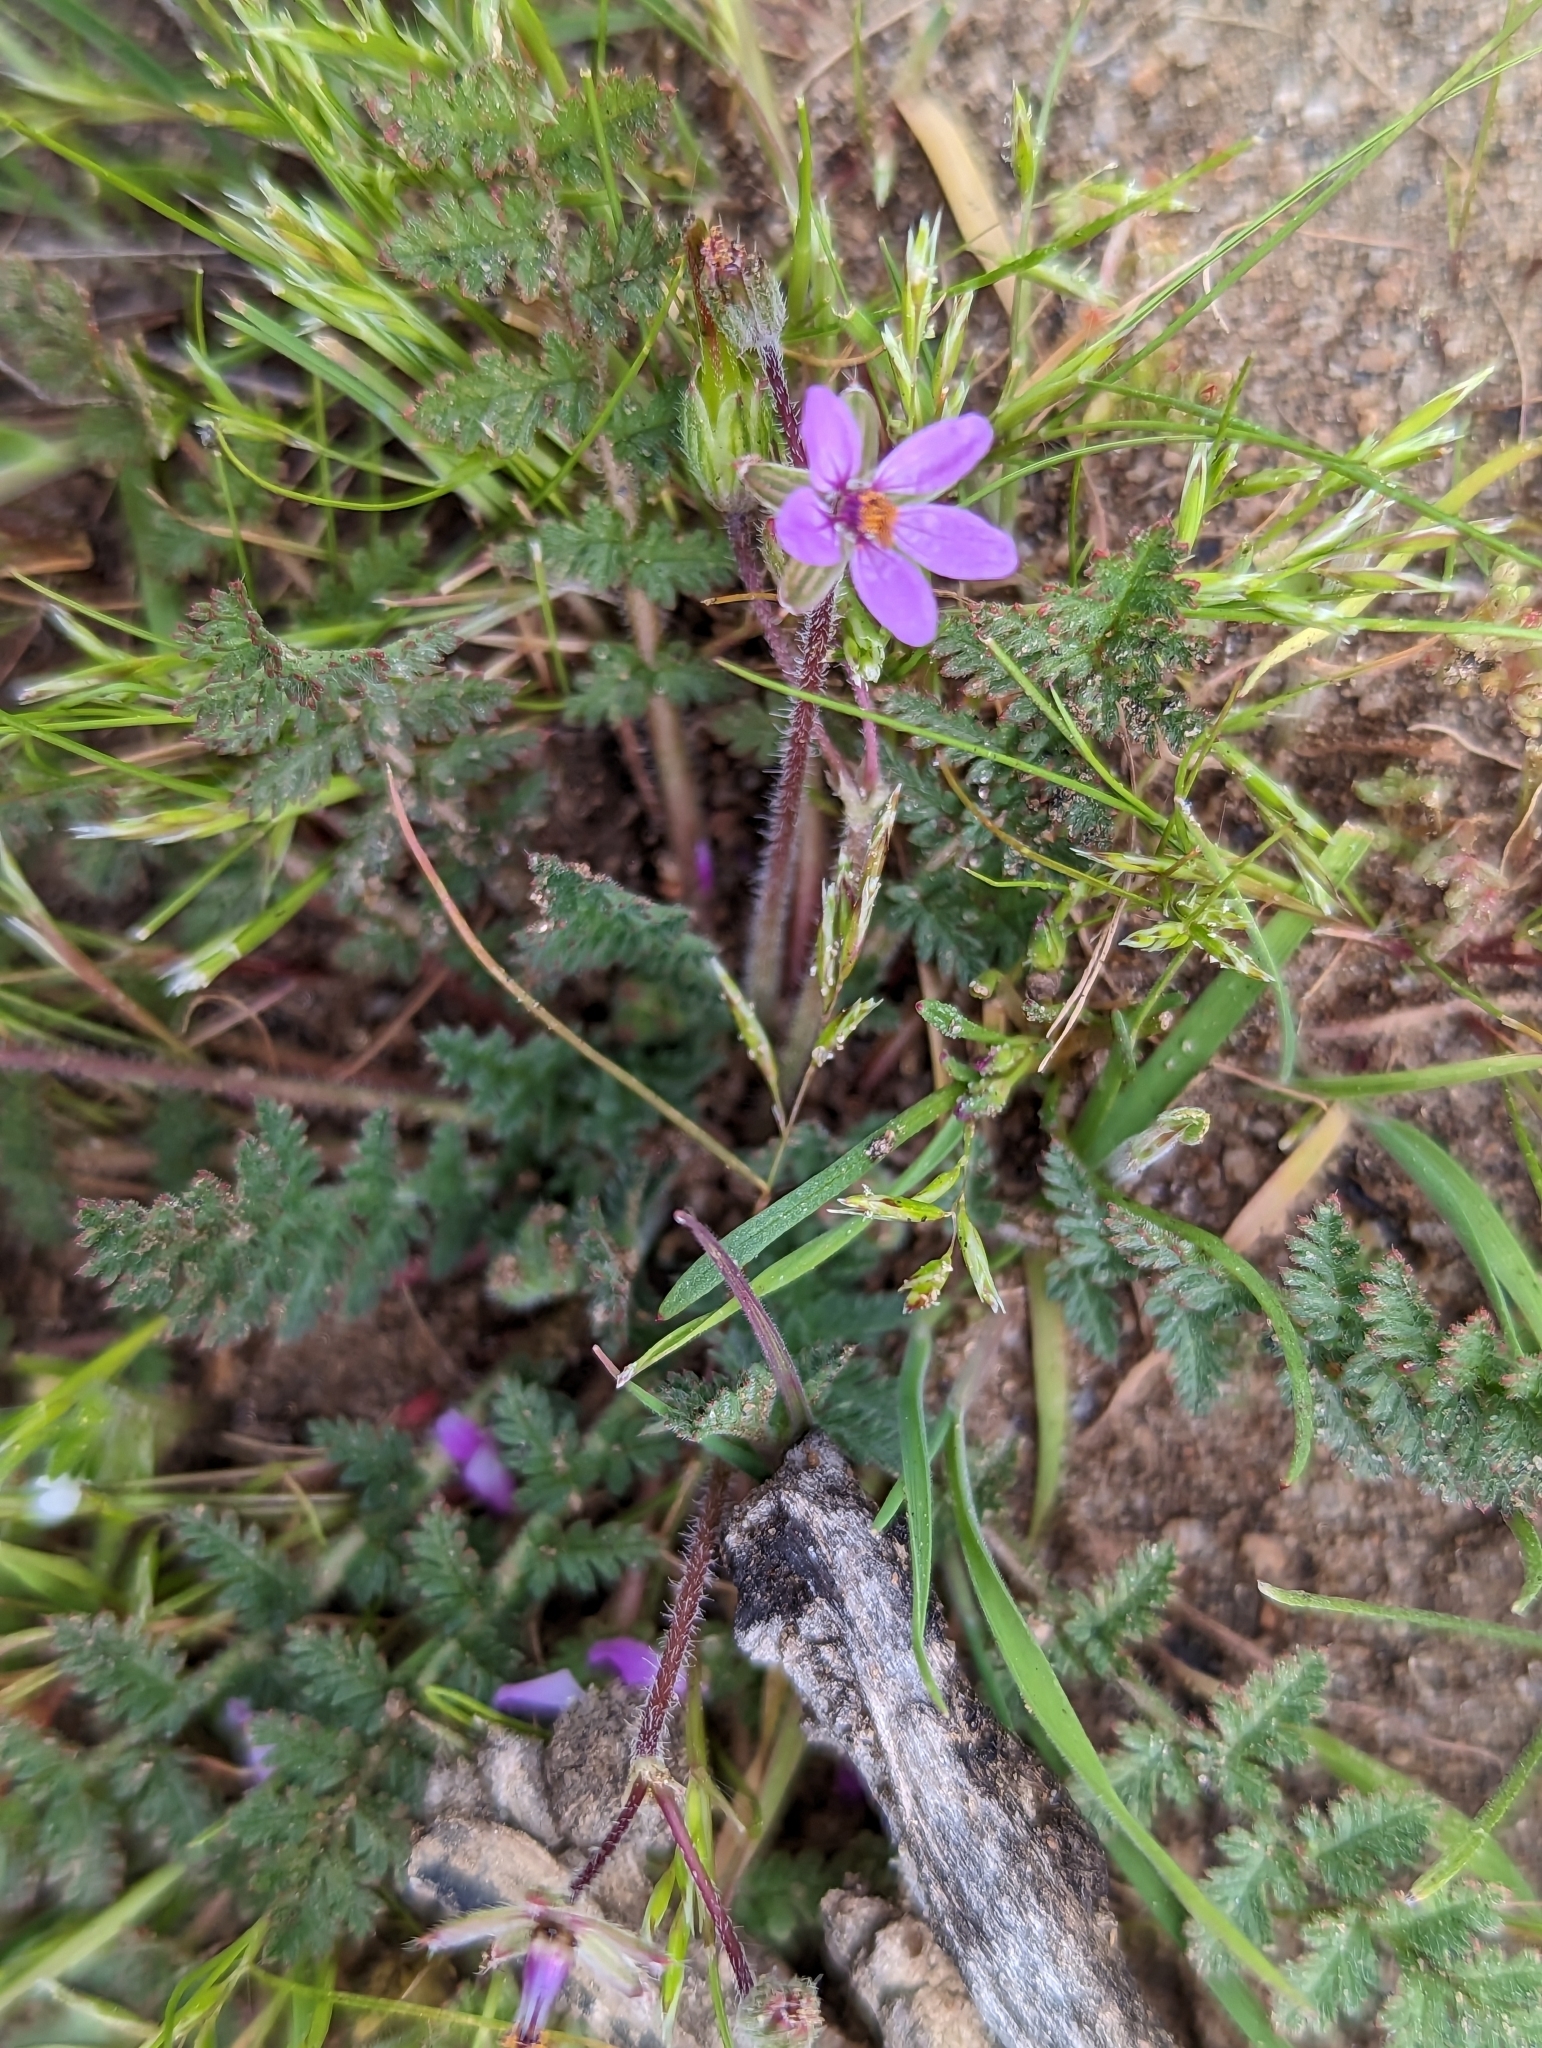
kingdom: Plantae
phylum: Tracheophyta
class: Magnoliopsida
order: Geraniales
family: Geraniaceae
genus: Erodium
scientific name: Erodium cicutarium
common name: Common stork's-bill
